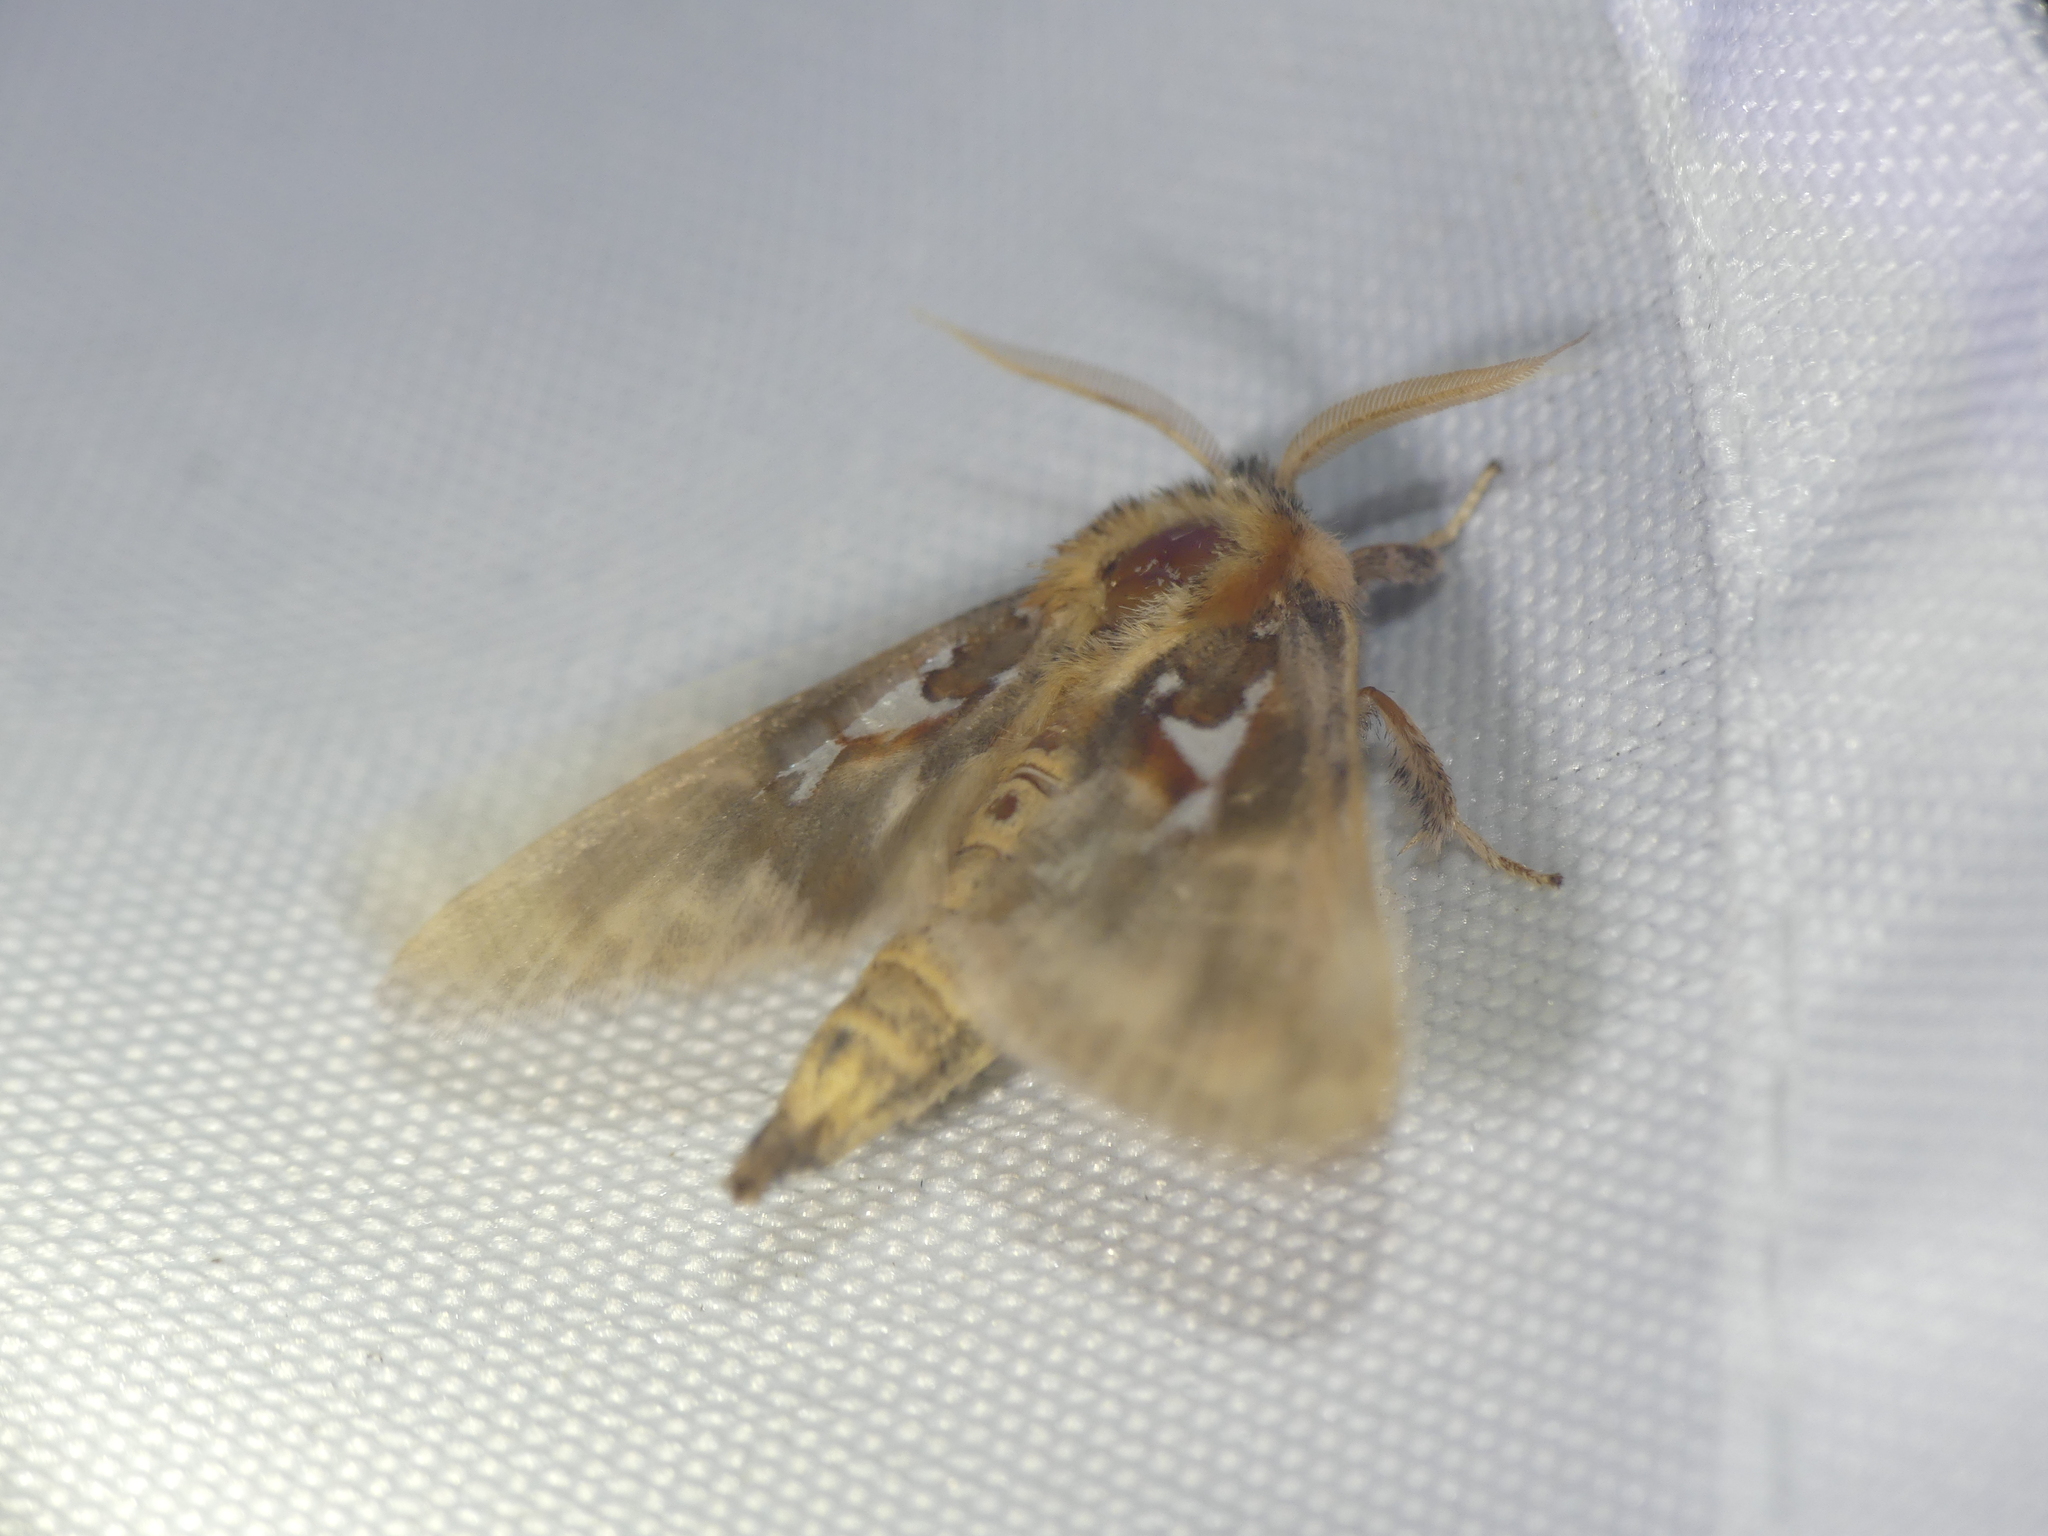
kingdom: Animalia
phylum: Arthropoda
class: Insecta
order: Lepidoptera
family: Notodontidae
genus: Spatalia
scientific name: Spatalia argentina
